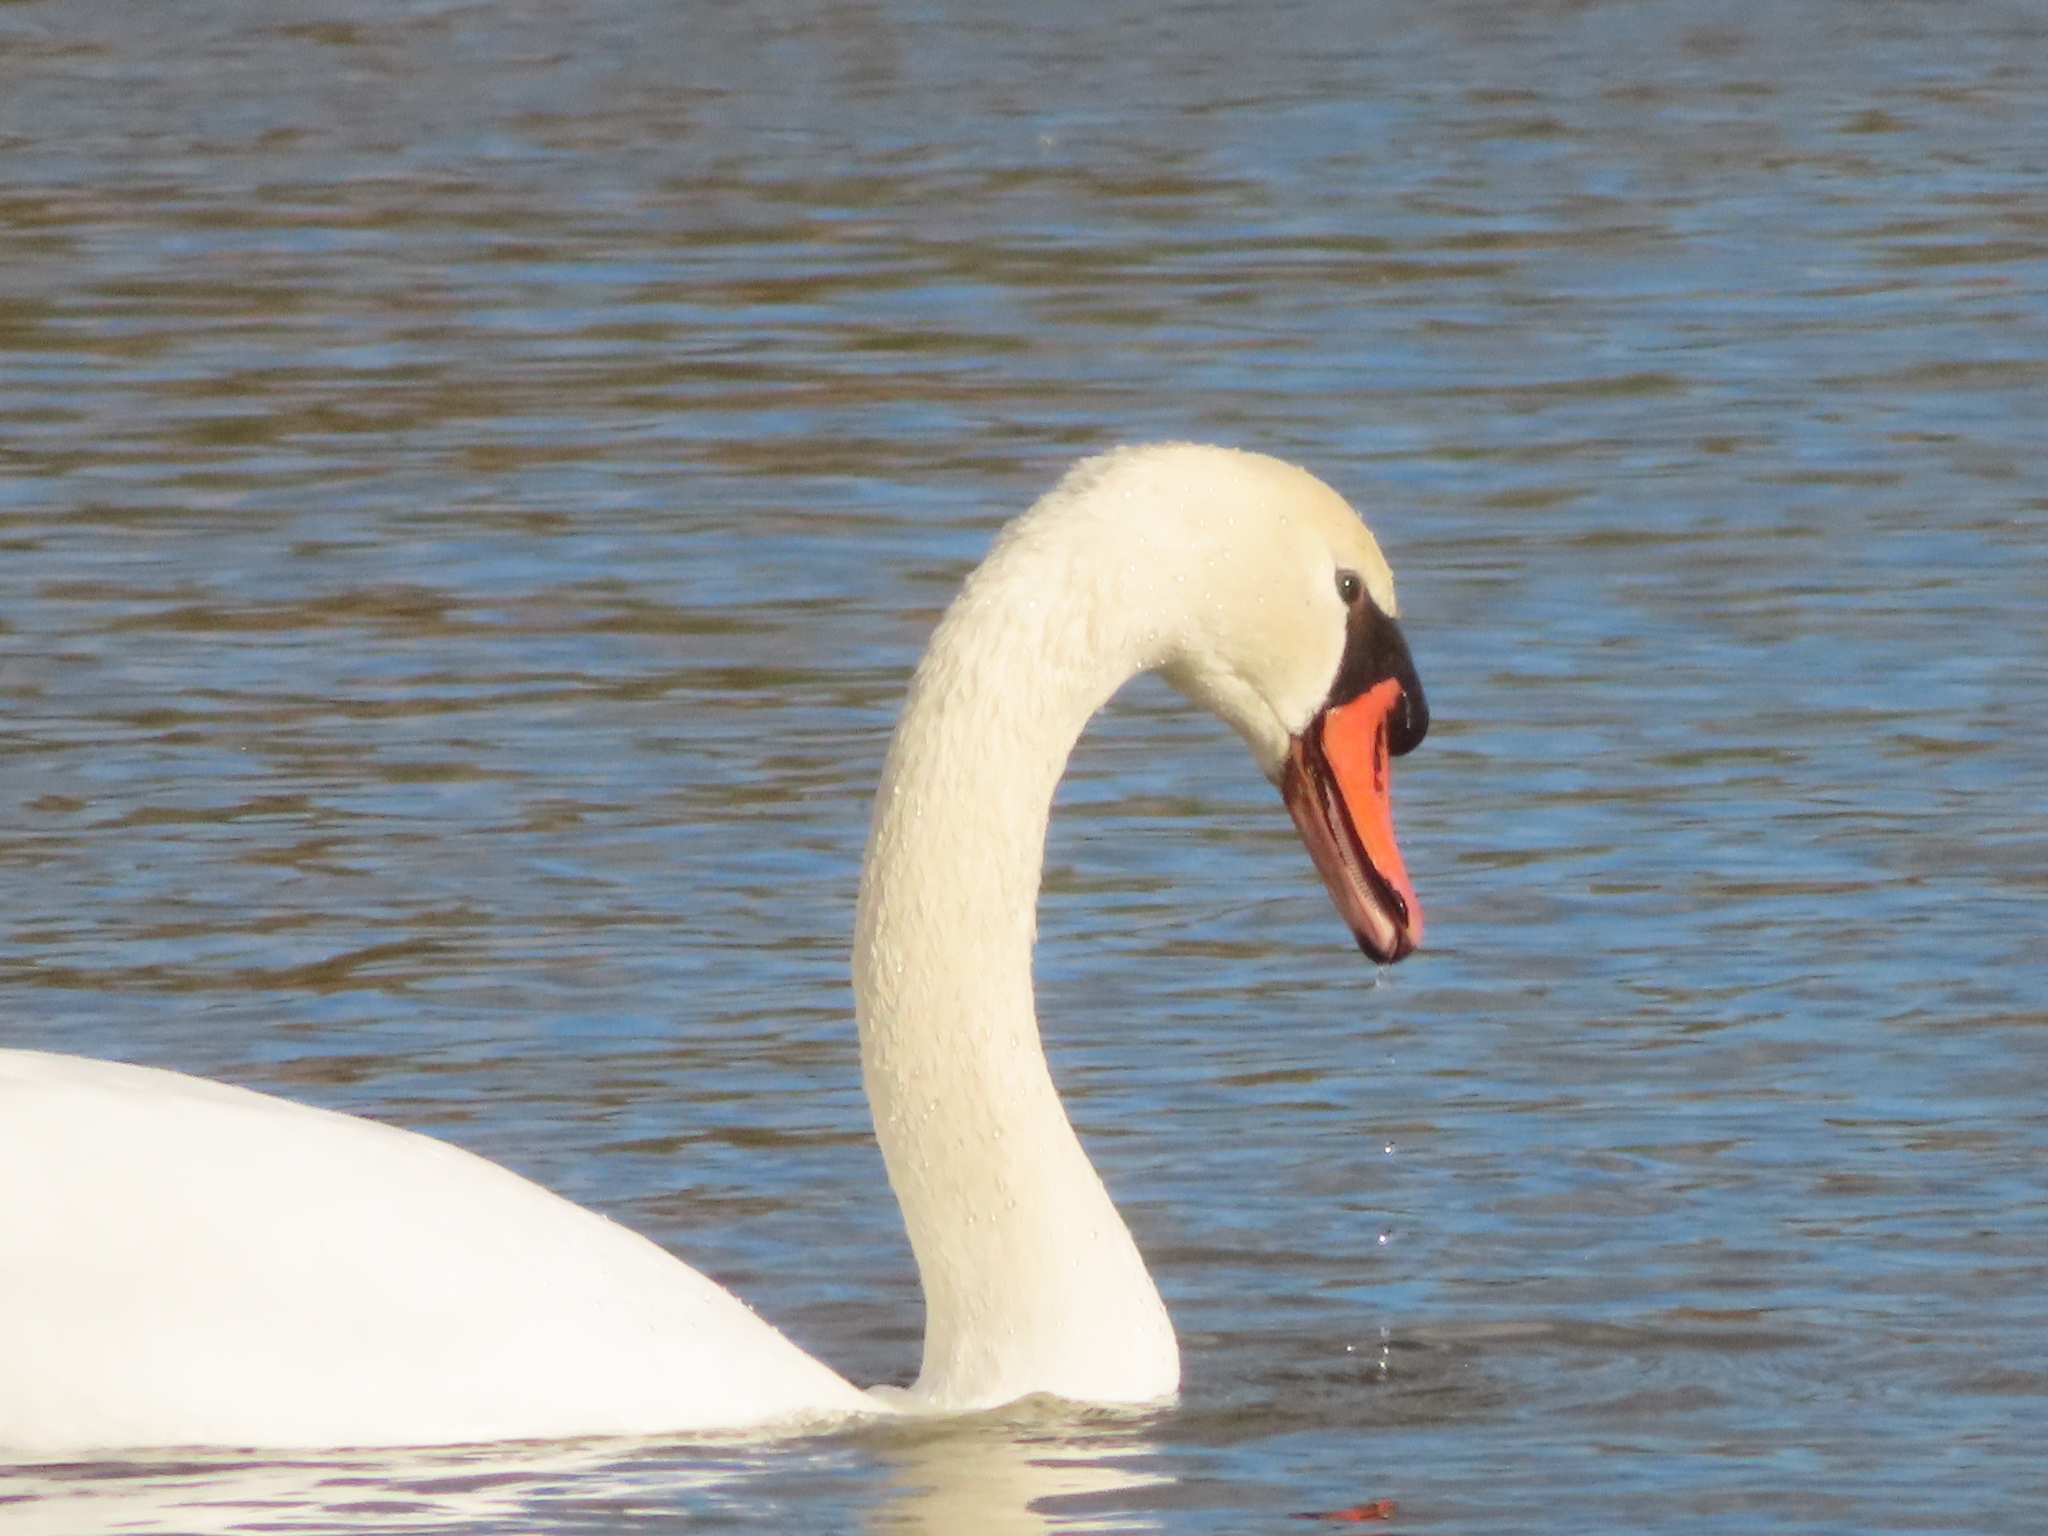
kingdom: Animalia
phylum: Chordata
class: Aves
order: Anseriformes
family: Anatidae
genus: Cygnus
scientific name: Cygnus olor
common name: Mute swan
